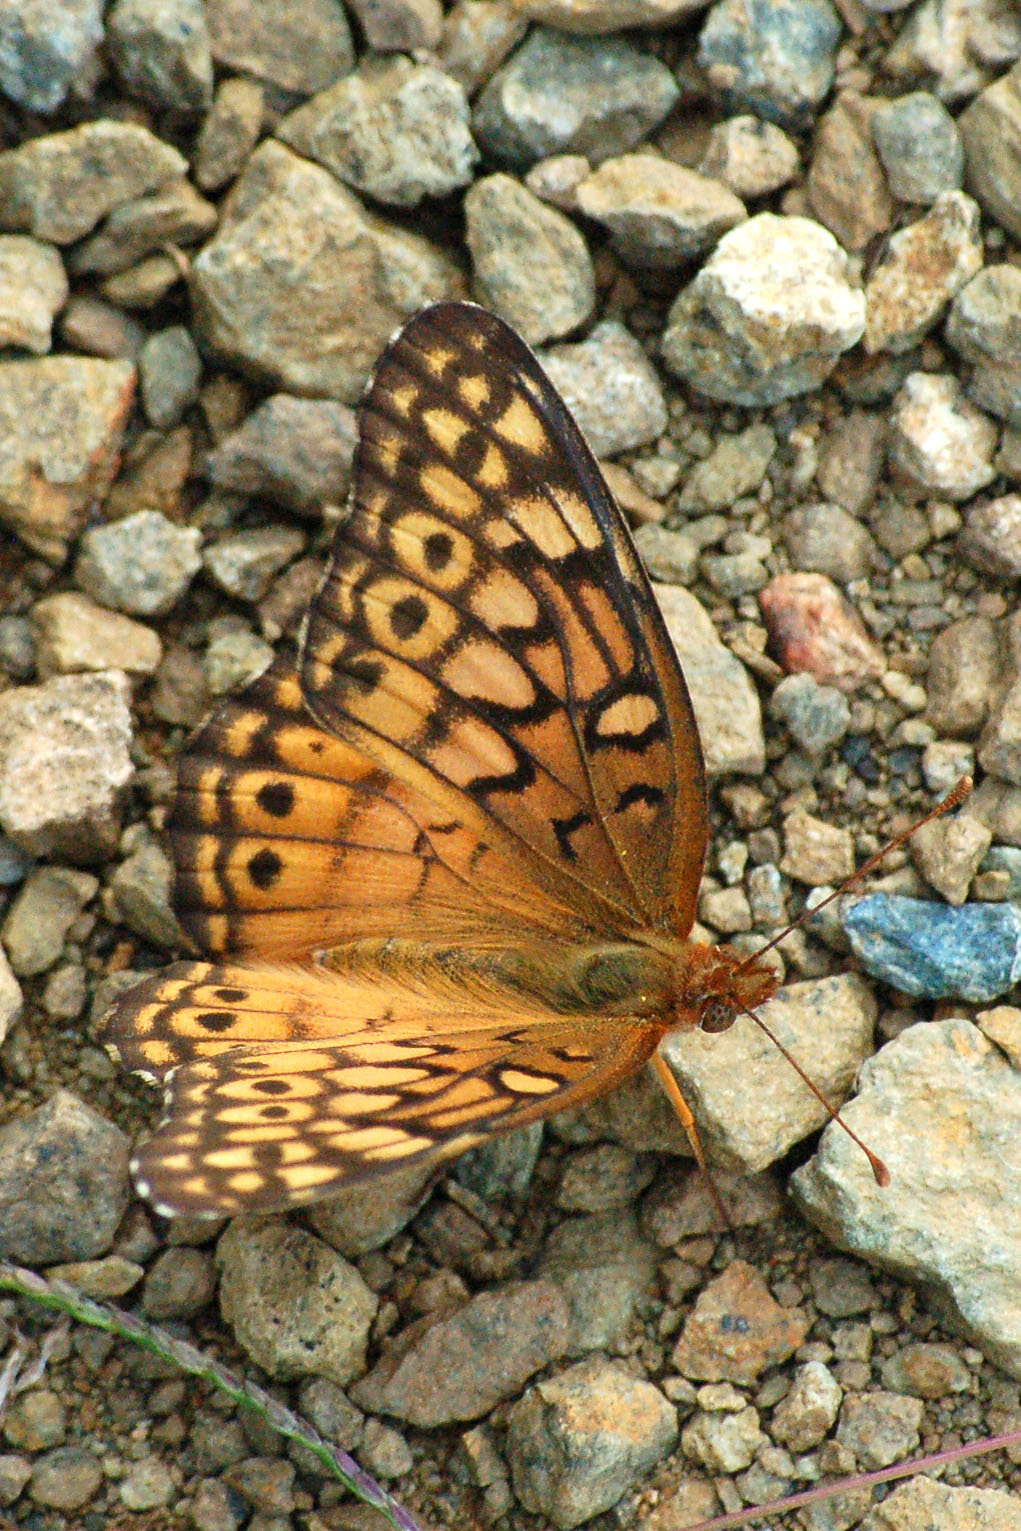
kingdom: Animalia
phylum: Arthropoda
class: Insecta
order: Lepidoptera
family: Nymphalidae
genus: Euptoieta
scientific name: Euptoieta claudia
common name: Variegated fritillary
